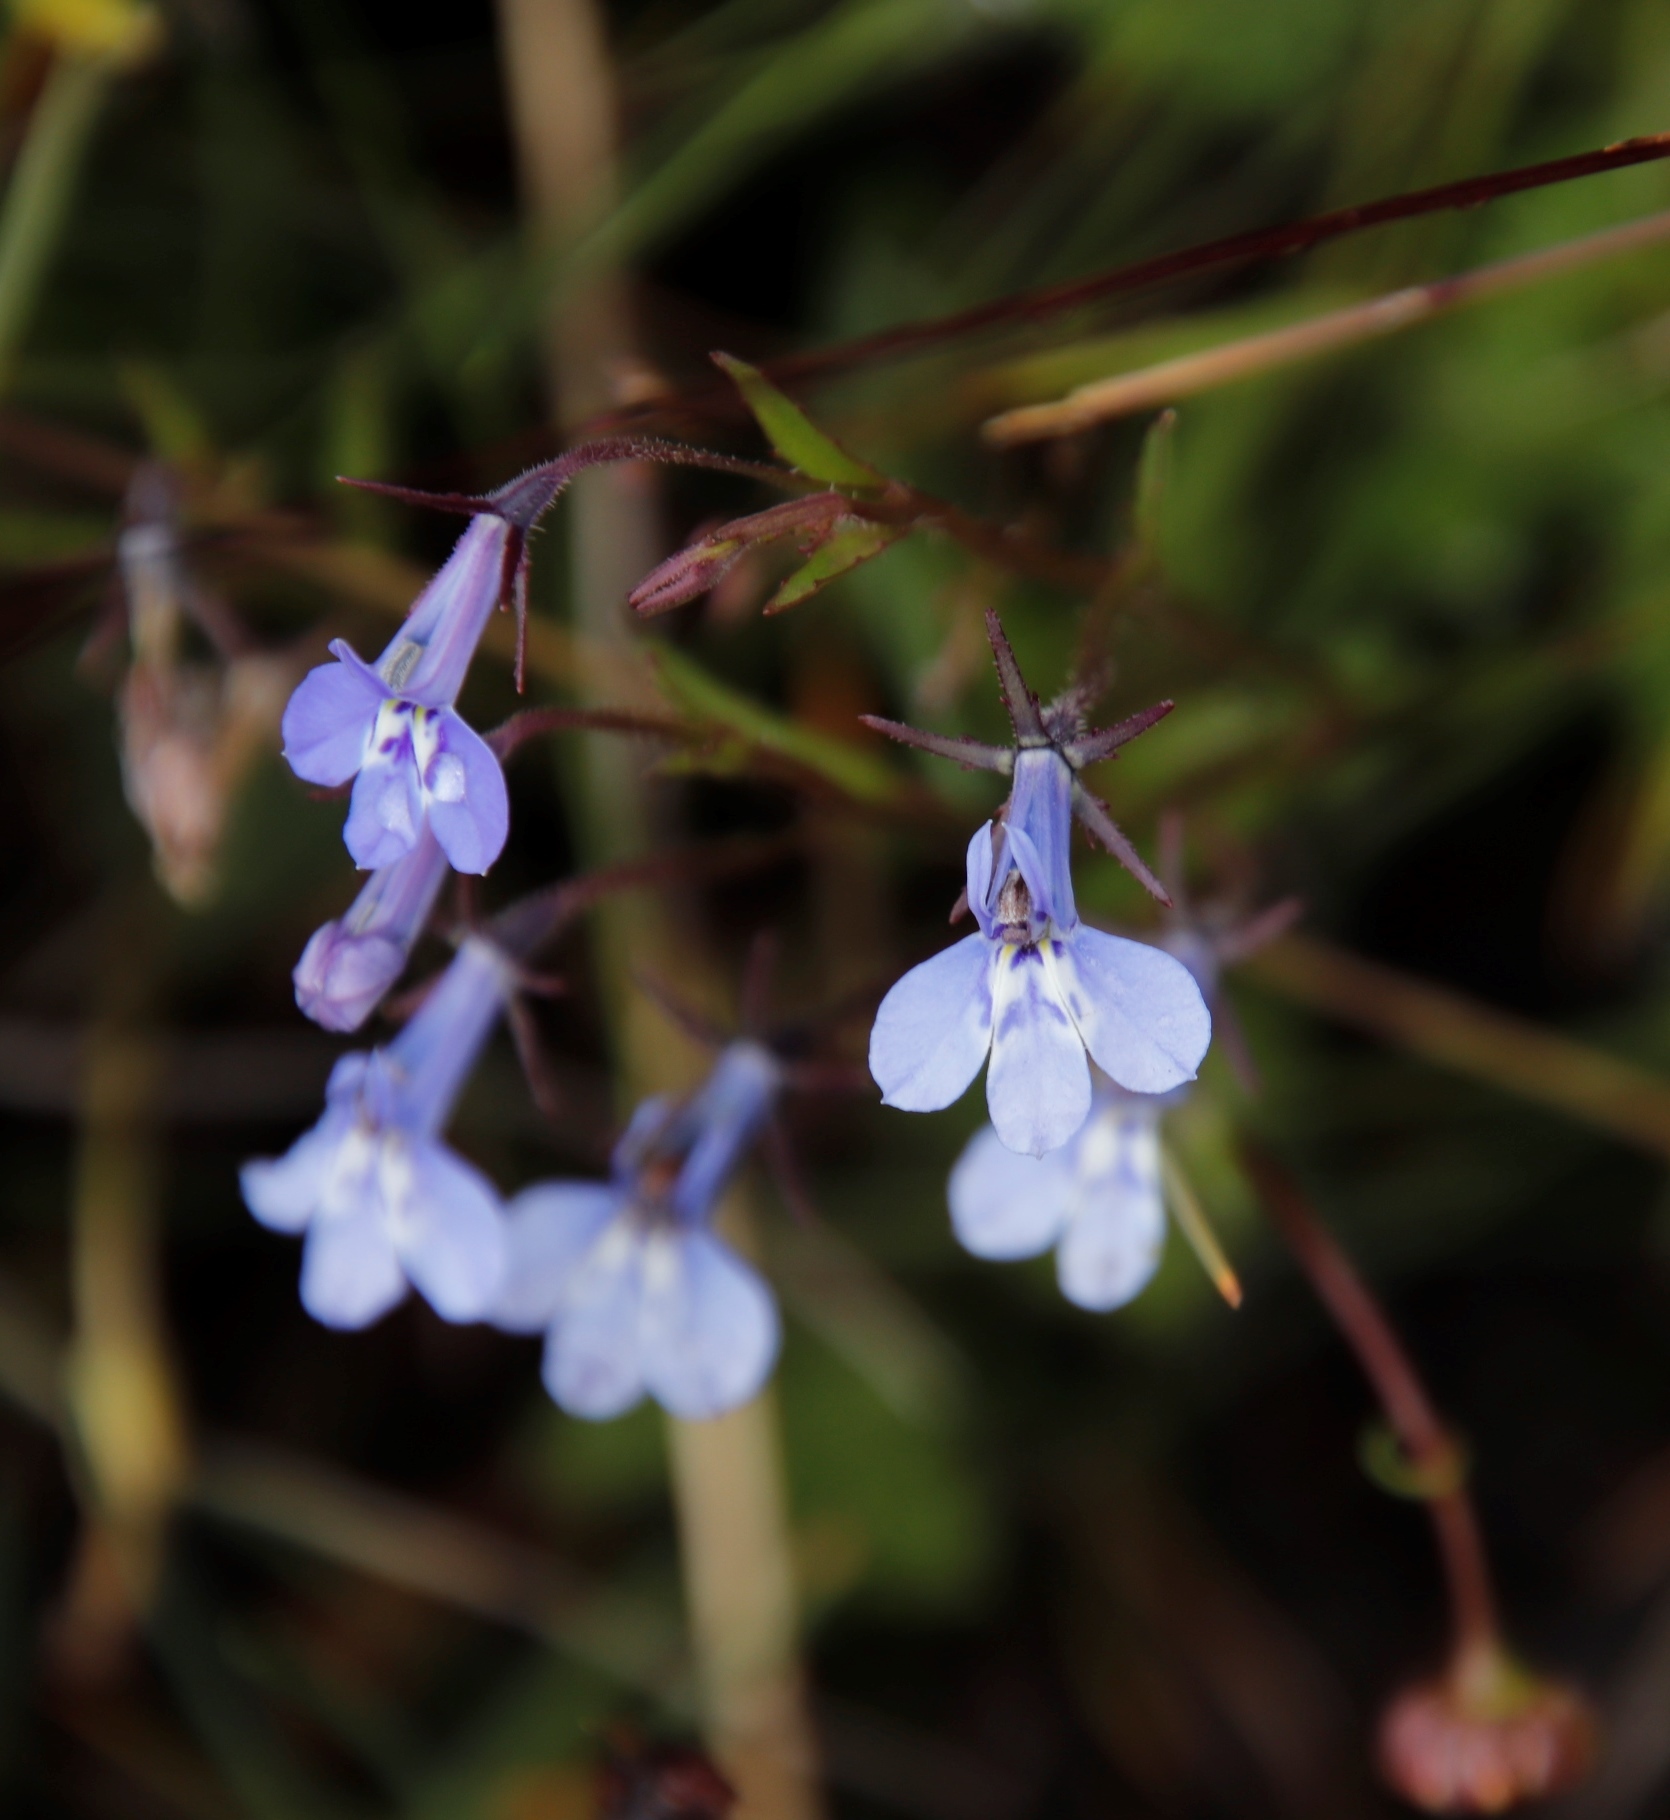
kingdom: Plantae
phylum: Tracheophyta
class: Magnoliopsida
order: Asterales
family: Campanulaceae
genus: Lobelia
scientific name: Lobelia flaccida
